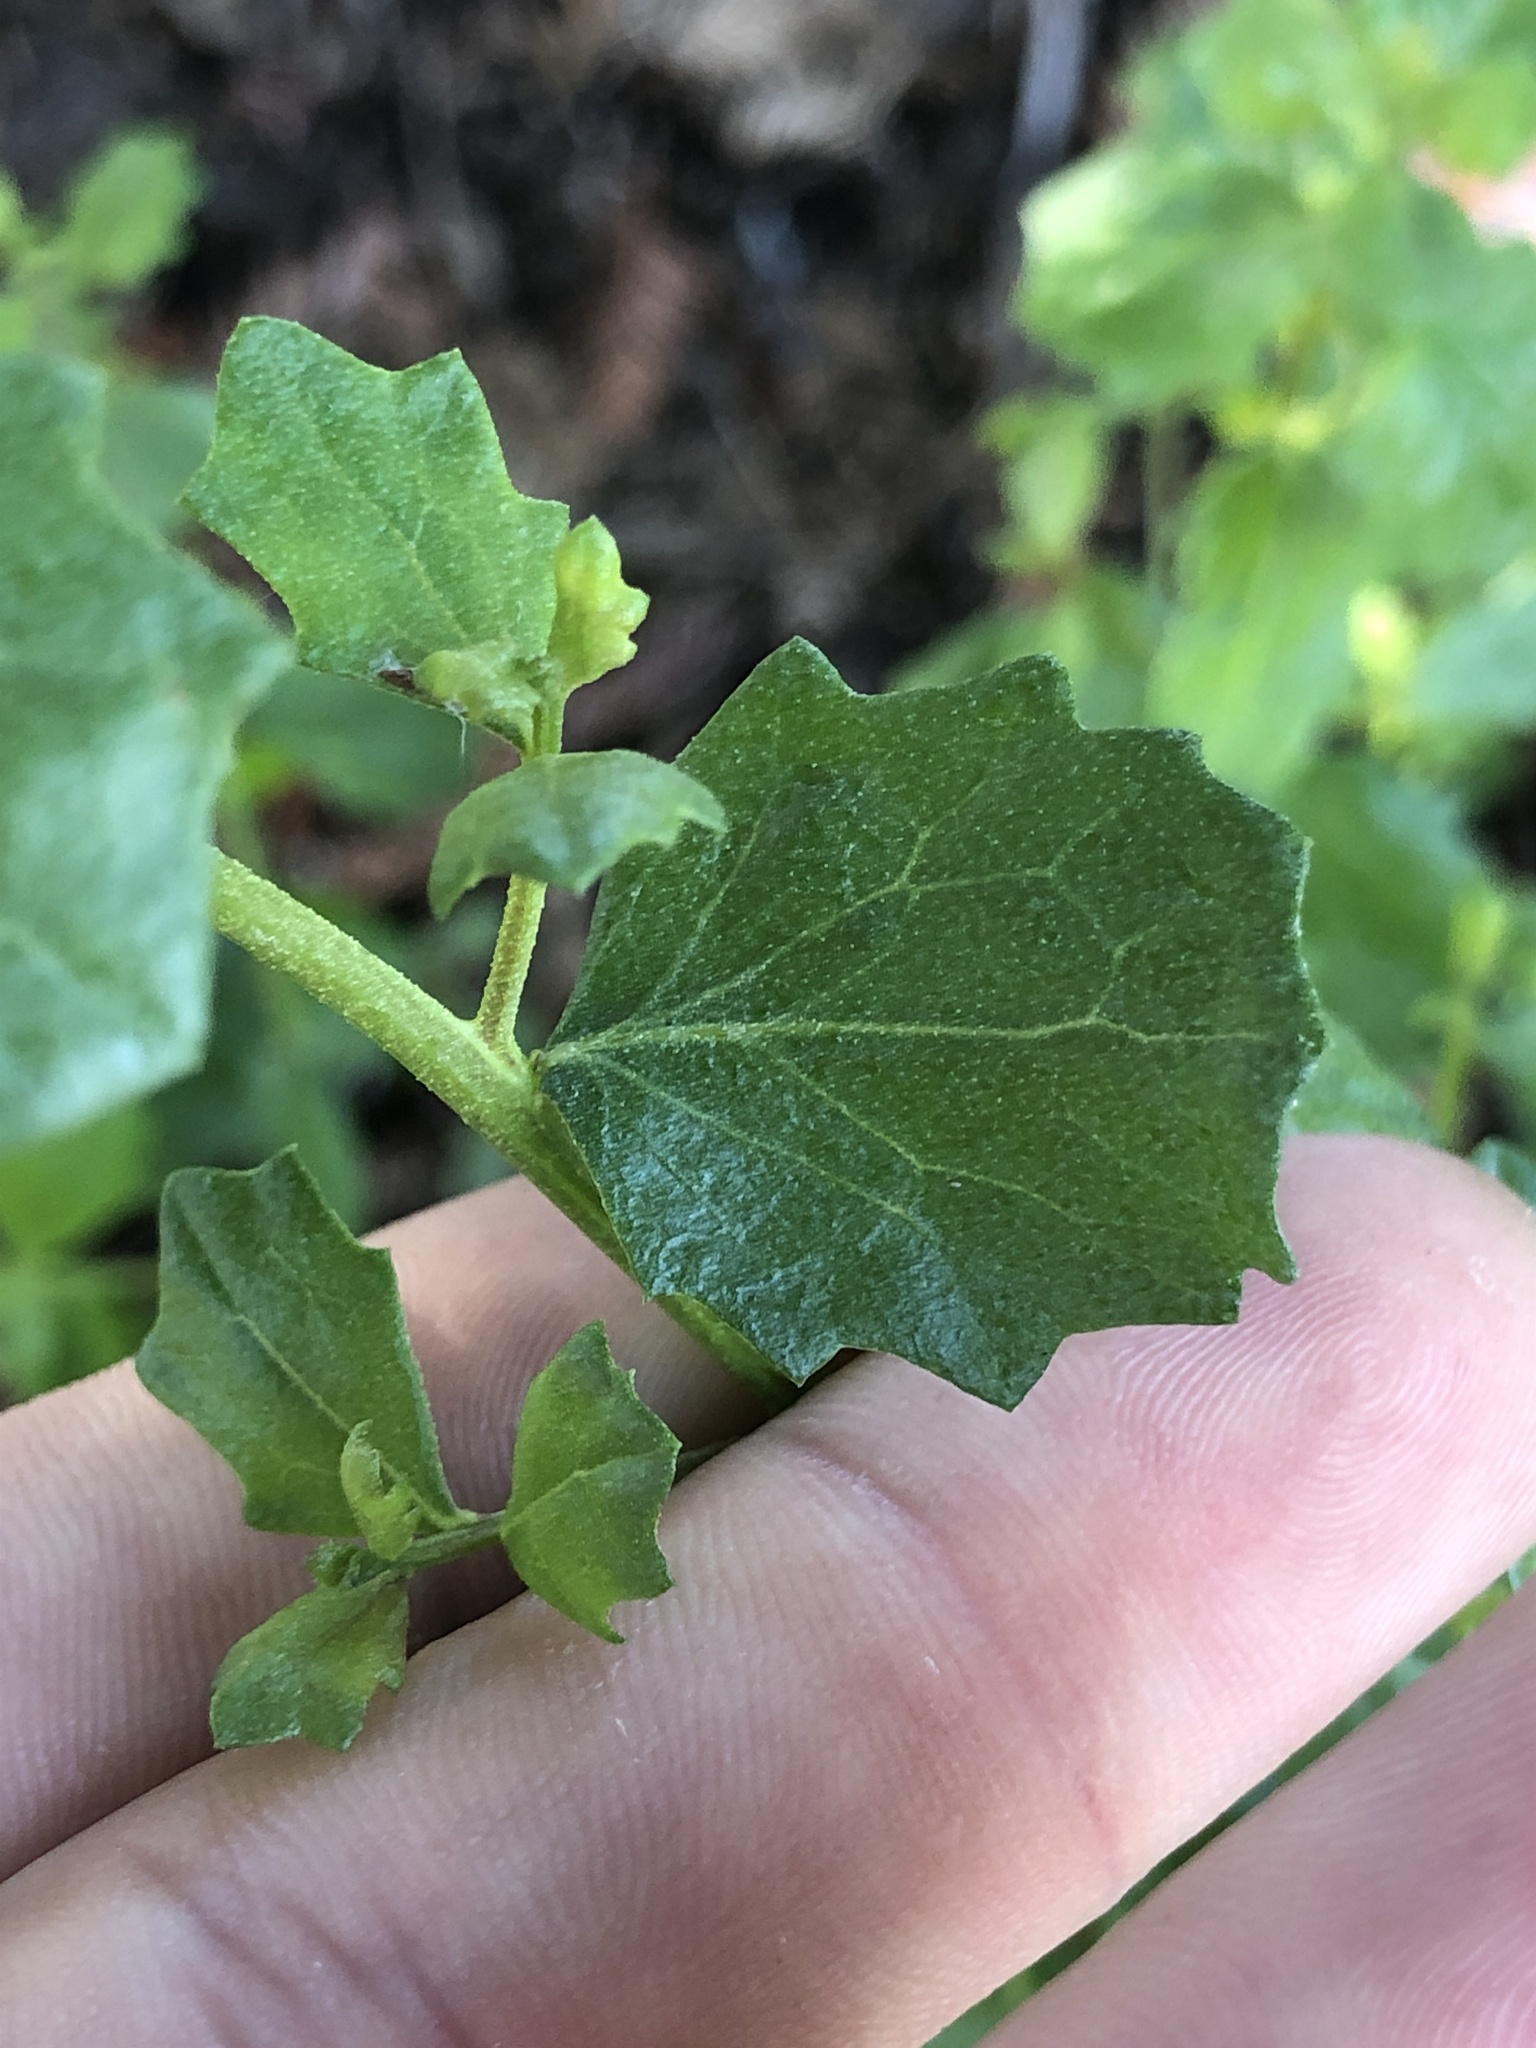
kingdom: Plantae
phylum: Tracheophyta
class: Magnoliopsida
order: Asterales
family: Asteraceae
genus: Baccharis
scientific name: Baccharis pilularis
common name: Coyotebrush
